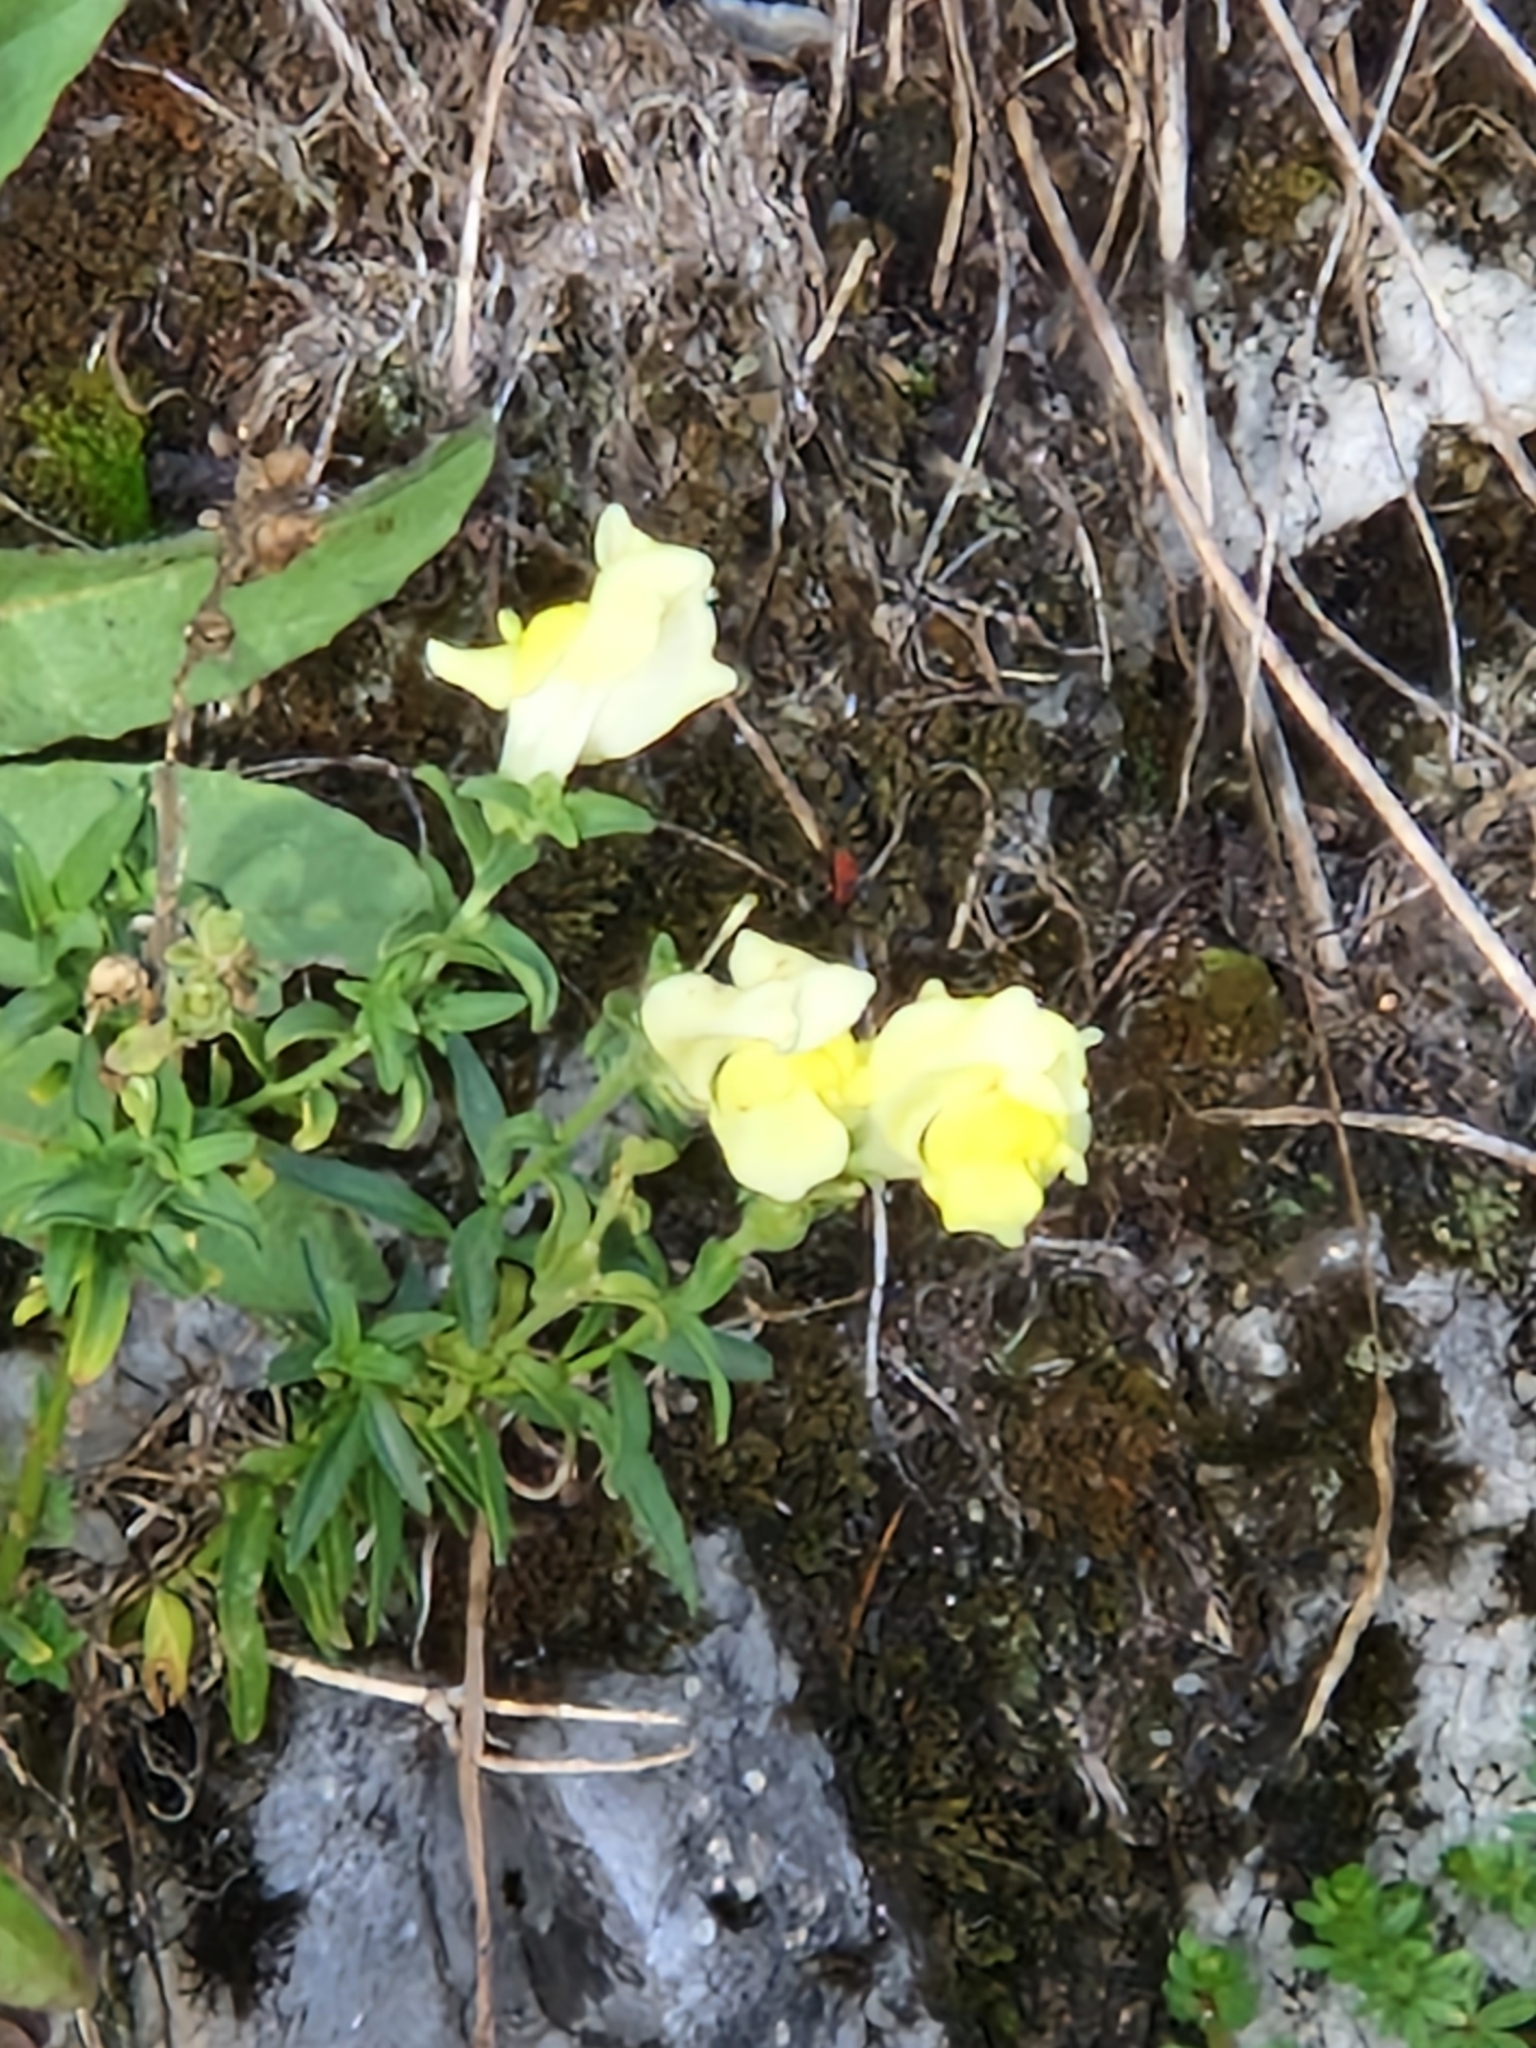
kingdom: Plantae
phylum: Tracheophyta
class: Magnoliopsida
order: Lamiales
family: Plantaginaceae
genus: Antirrhinum
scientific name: Antirrhinum majus
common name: Snapdragon
